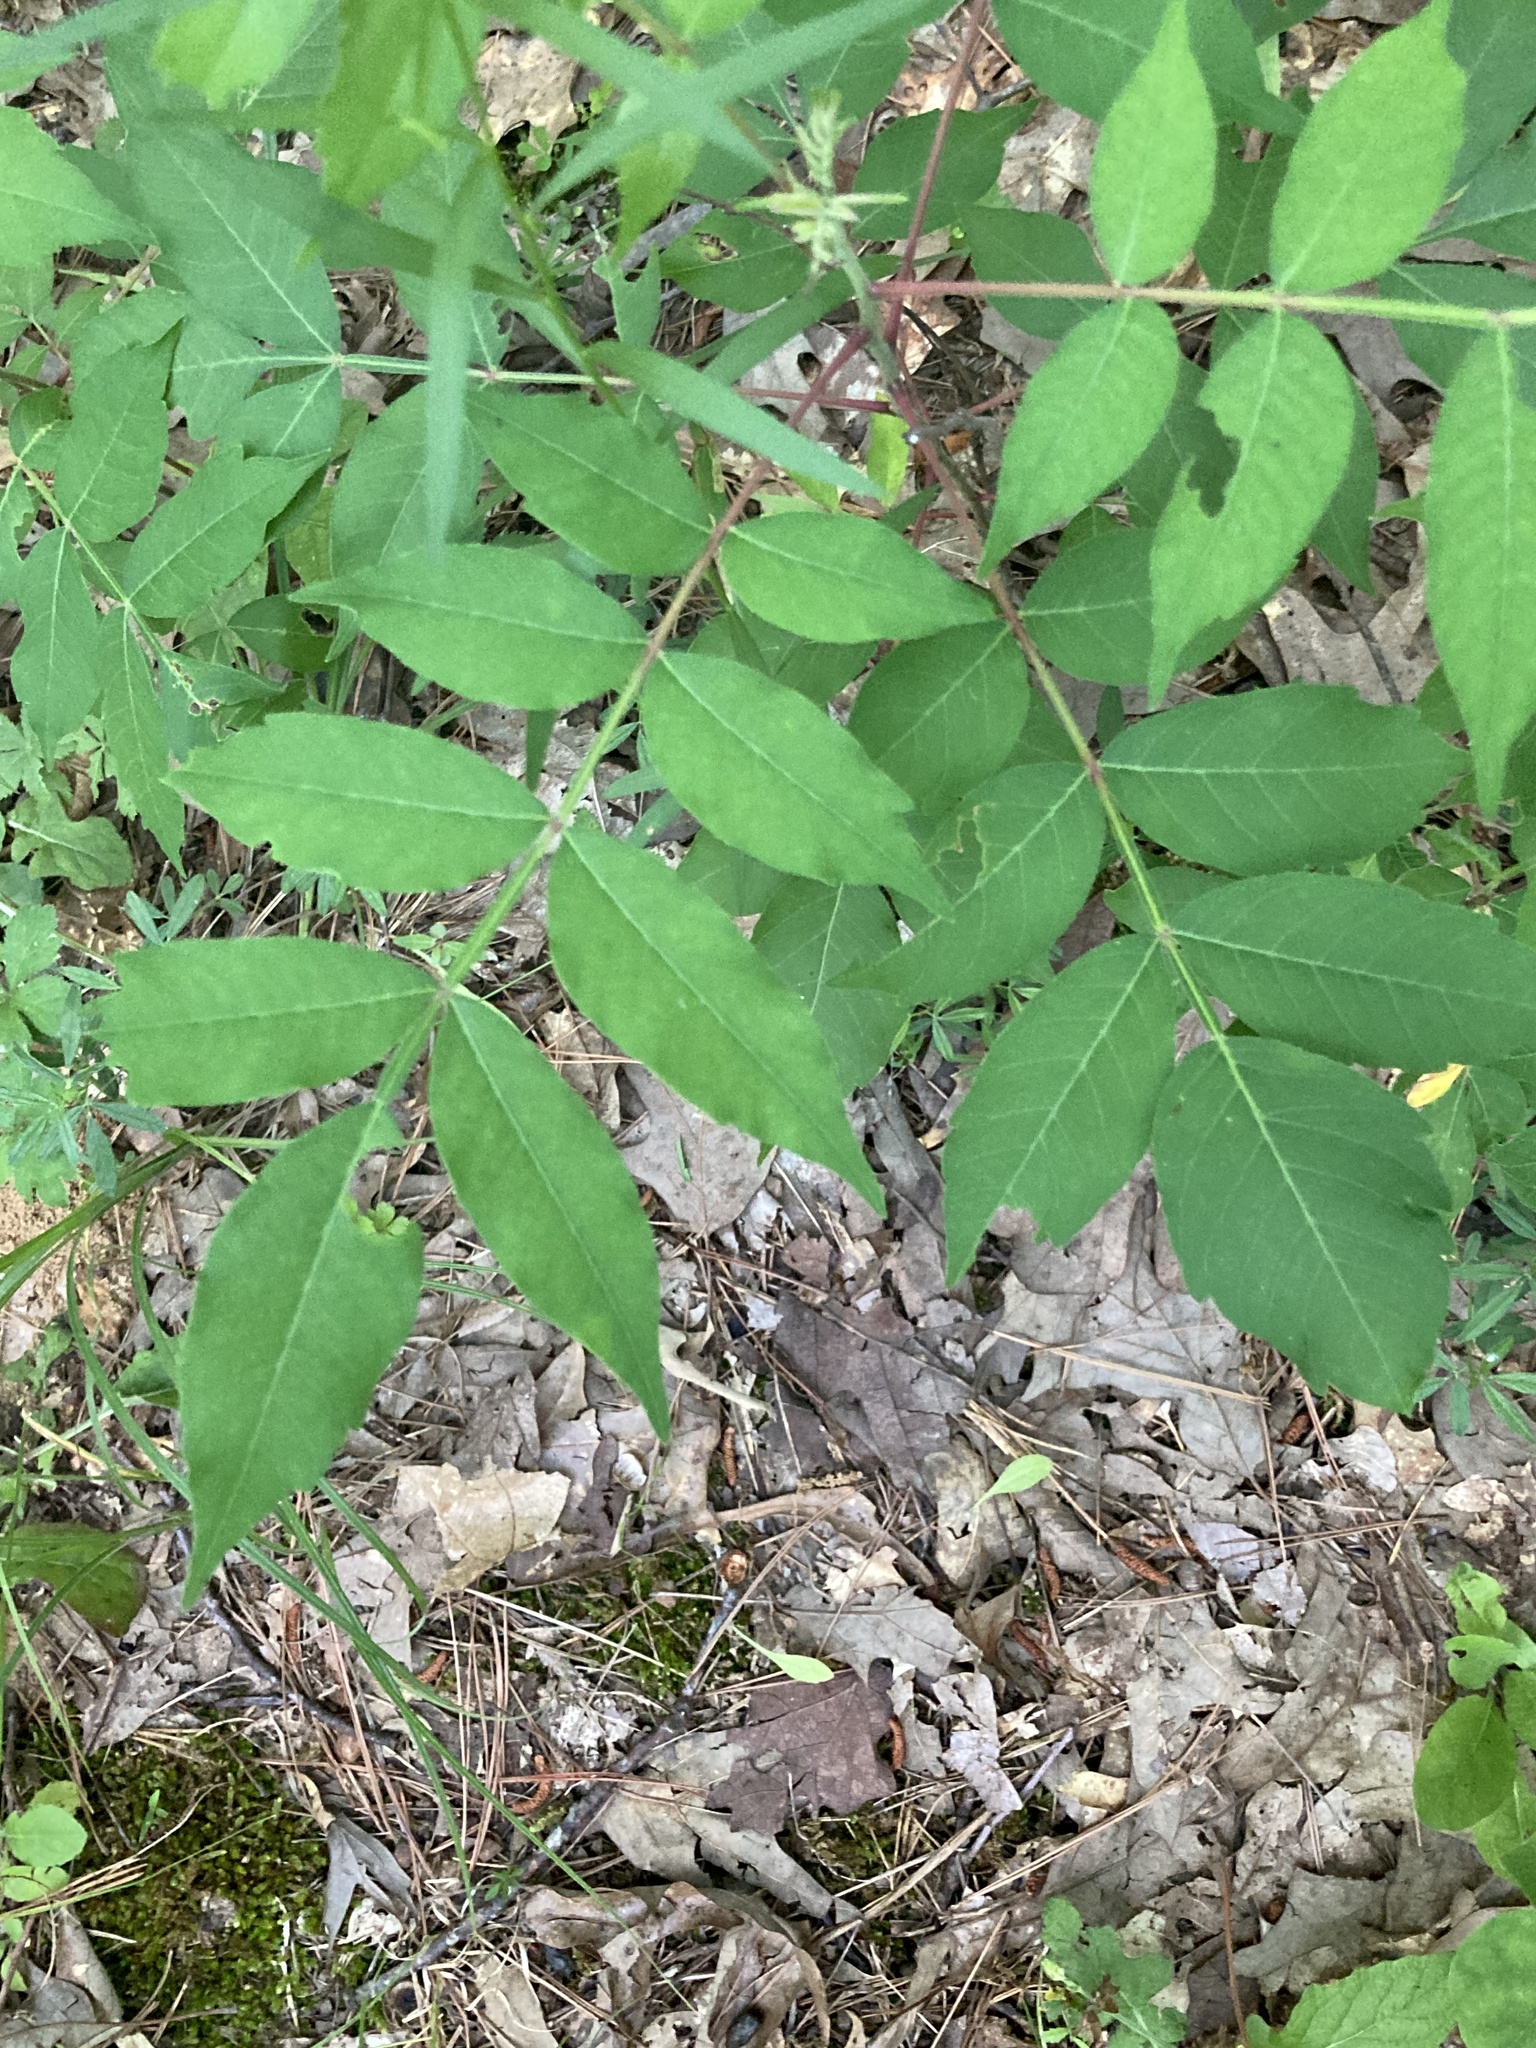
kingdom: Plantae
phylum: Tracheophyta
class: Magnoliopsida
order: Sapindales
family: Anacardiaceae
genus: Rhus
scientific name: Rhus copallina
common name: Shining sumac
